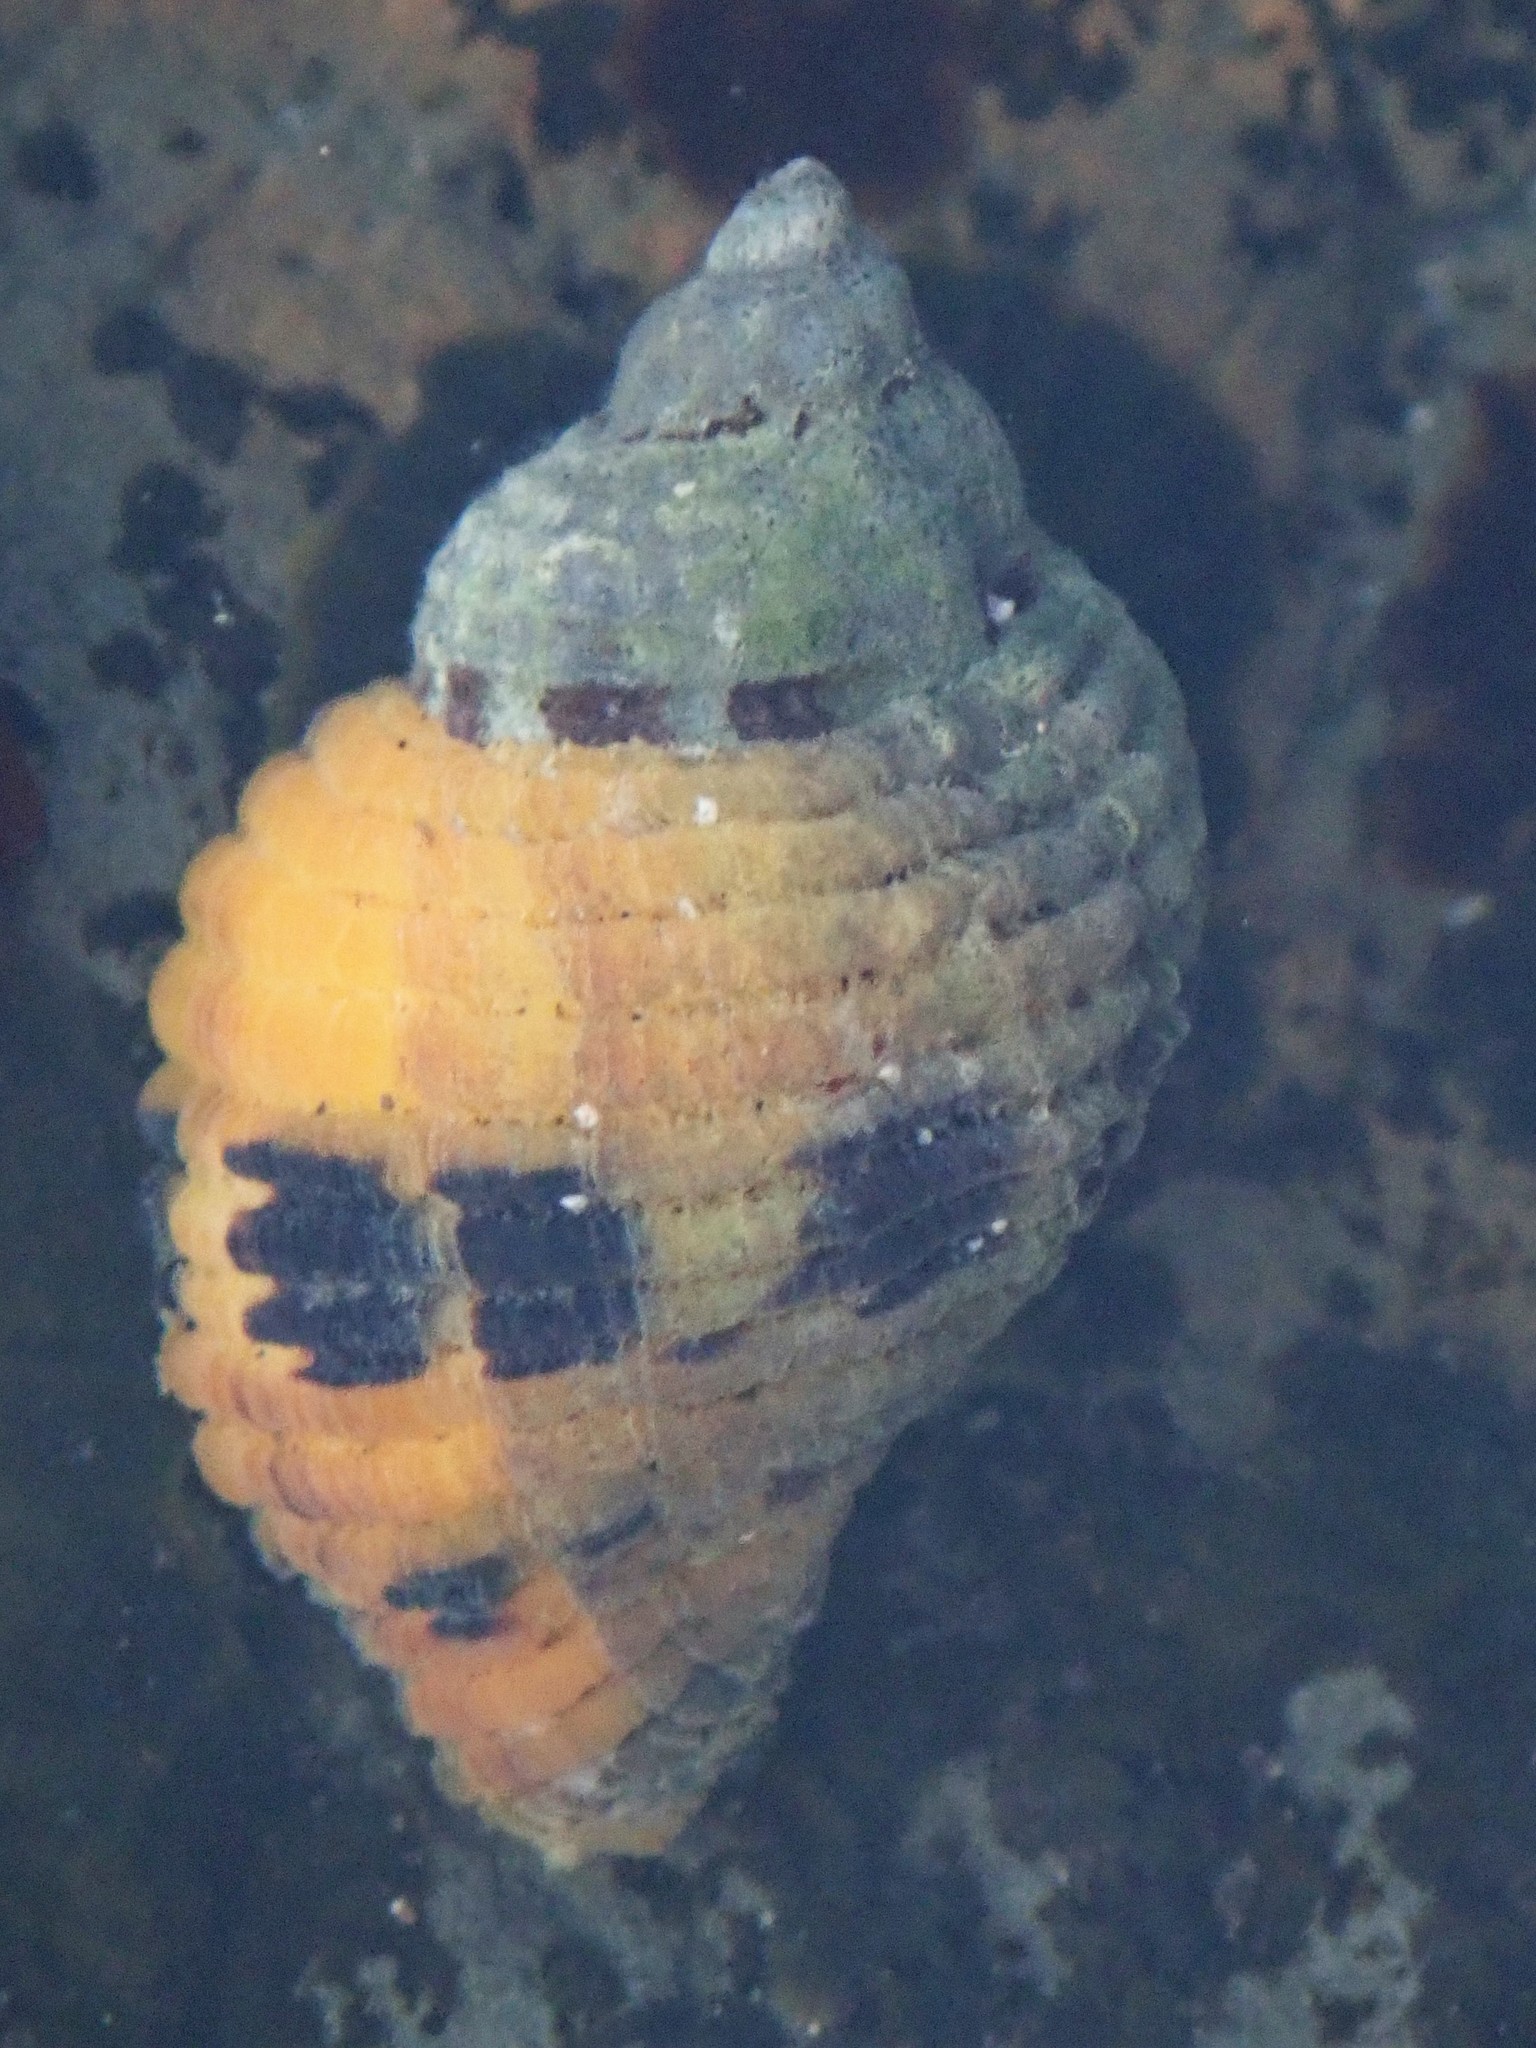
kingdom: Animalia
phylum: Mollusca
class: Gastropoda
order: Neogastropoda
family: Muricidae
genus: Paciocinebrina
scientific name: Paciocinebrina circumtexta
